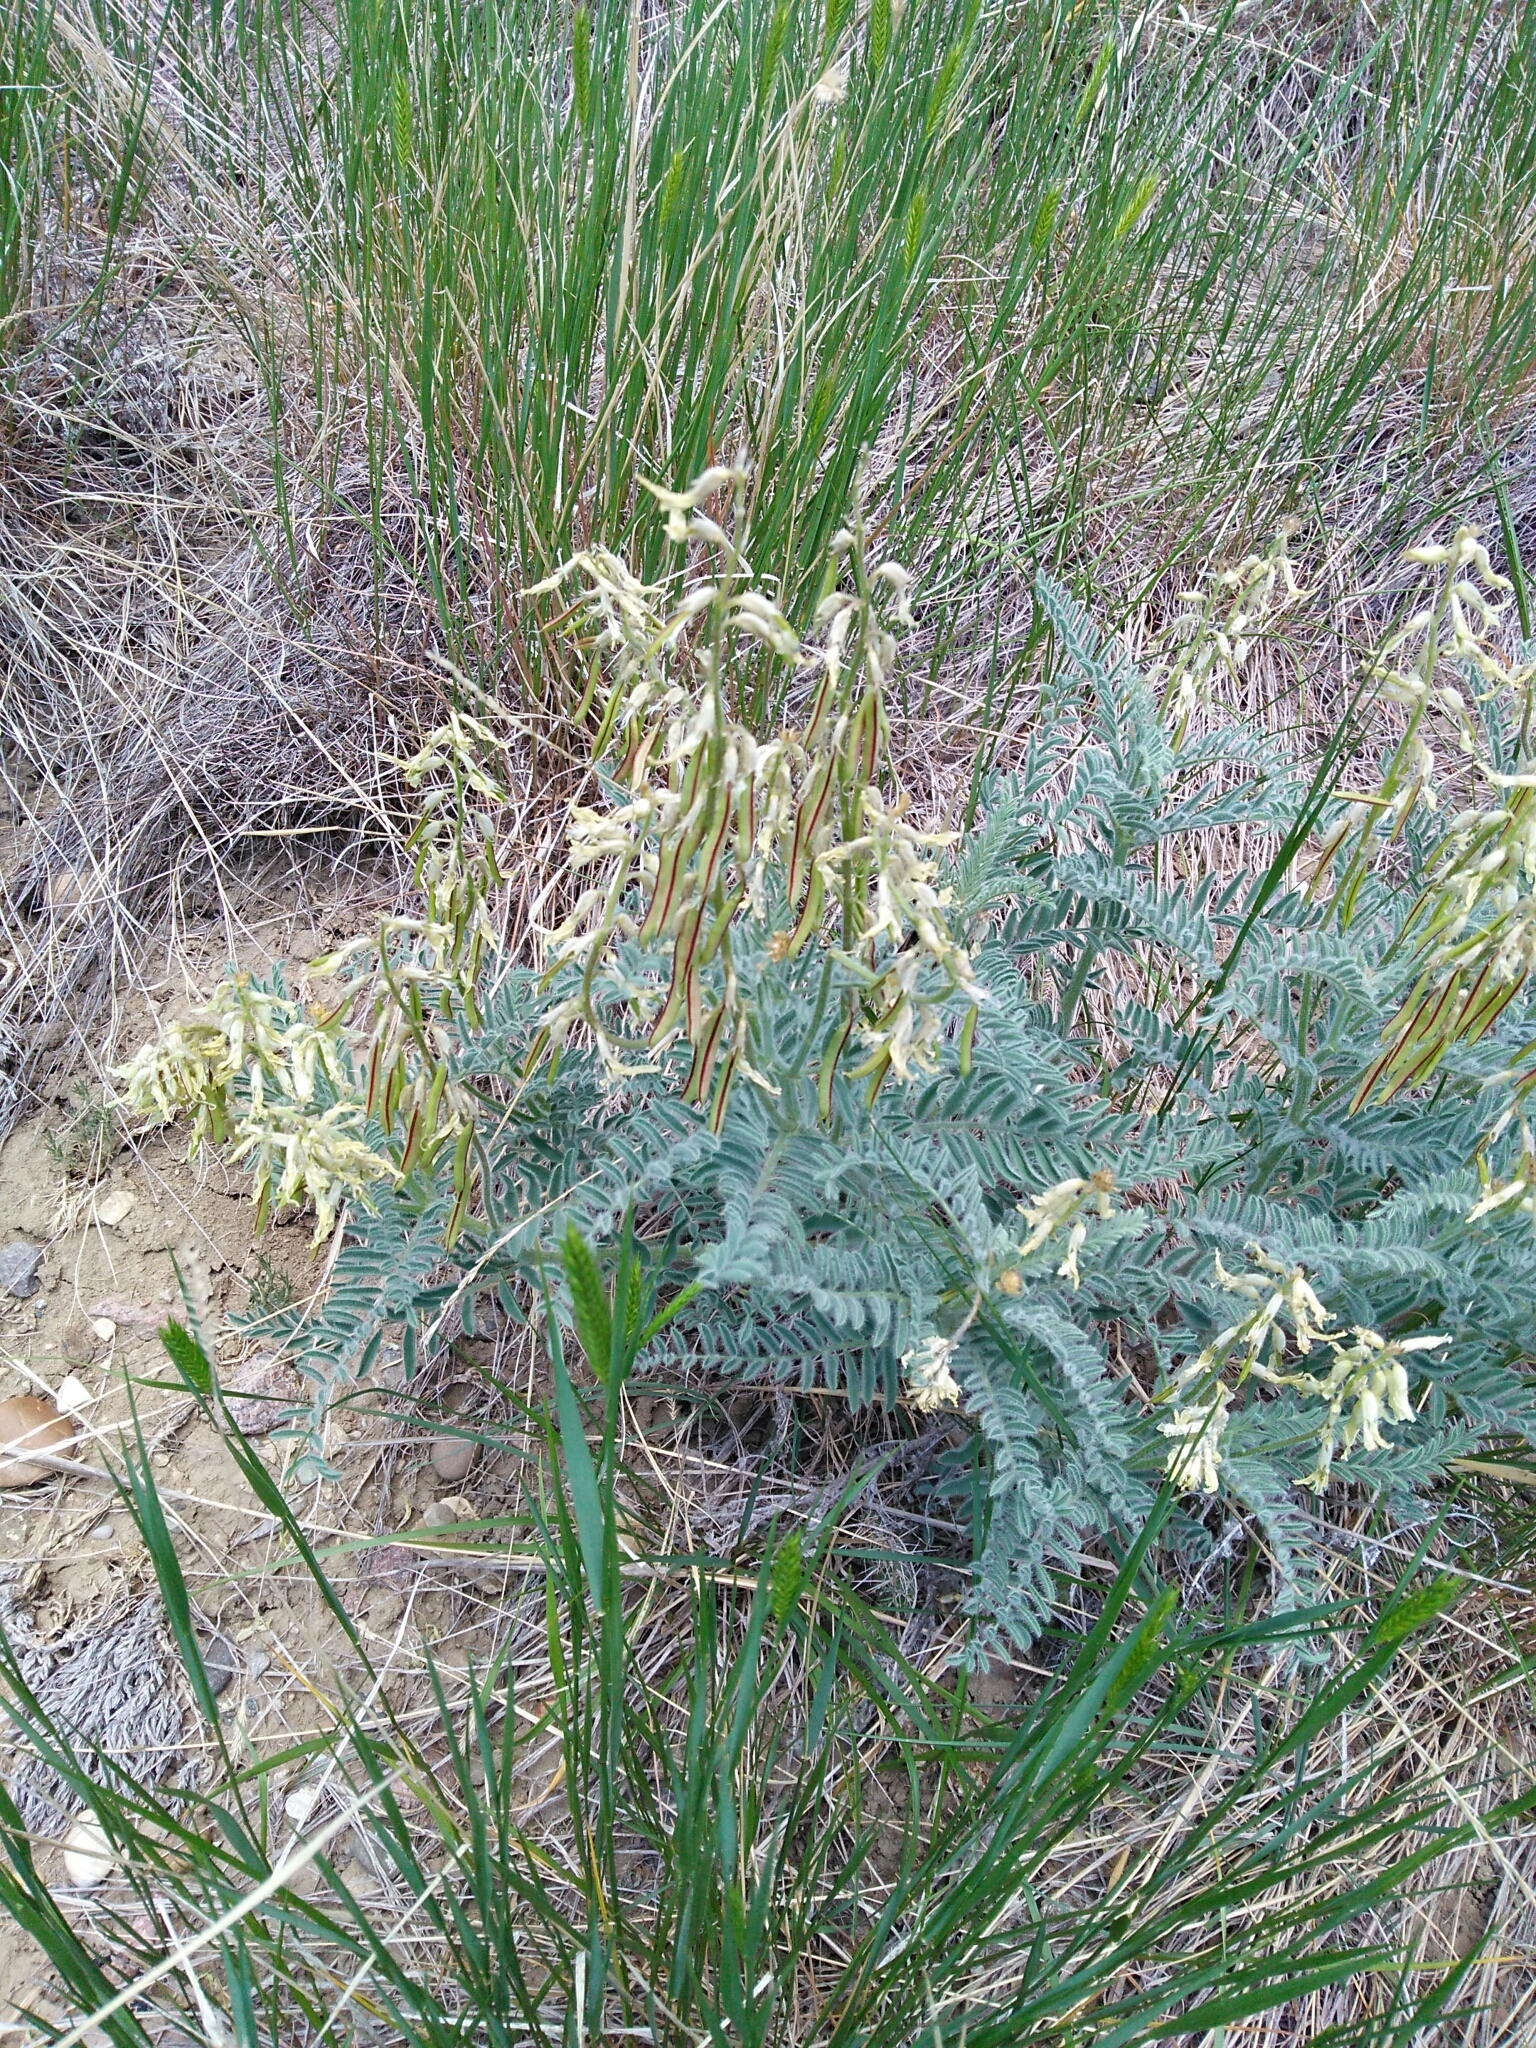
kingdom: Plantae
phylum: Tracheophyta
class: Magnoliopsida
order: Fabales
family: Fabaceae
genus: Astragalus
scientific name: Astragalus drummondii
